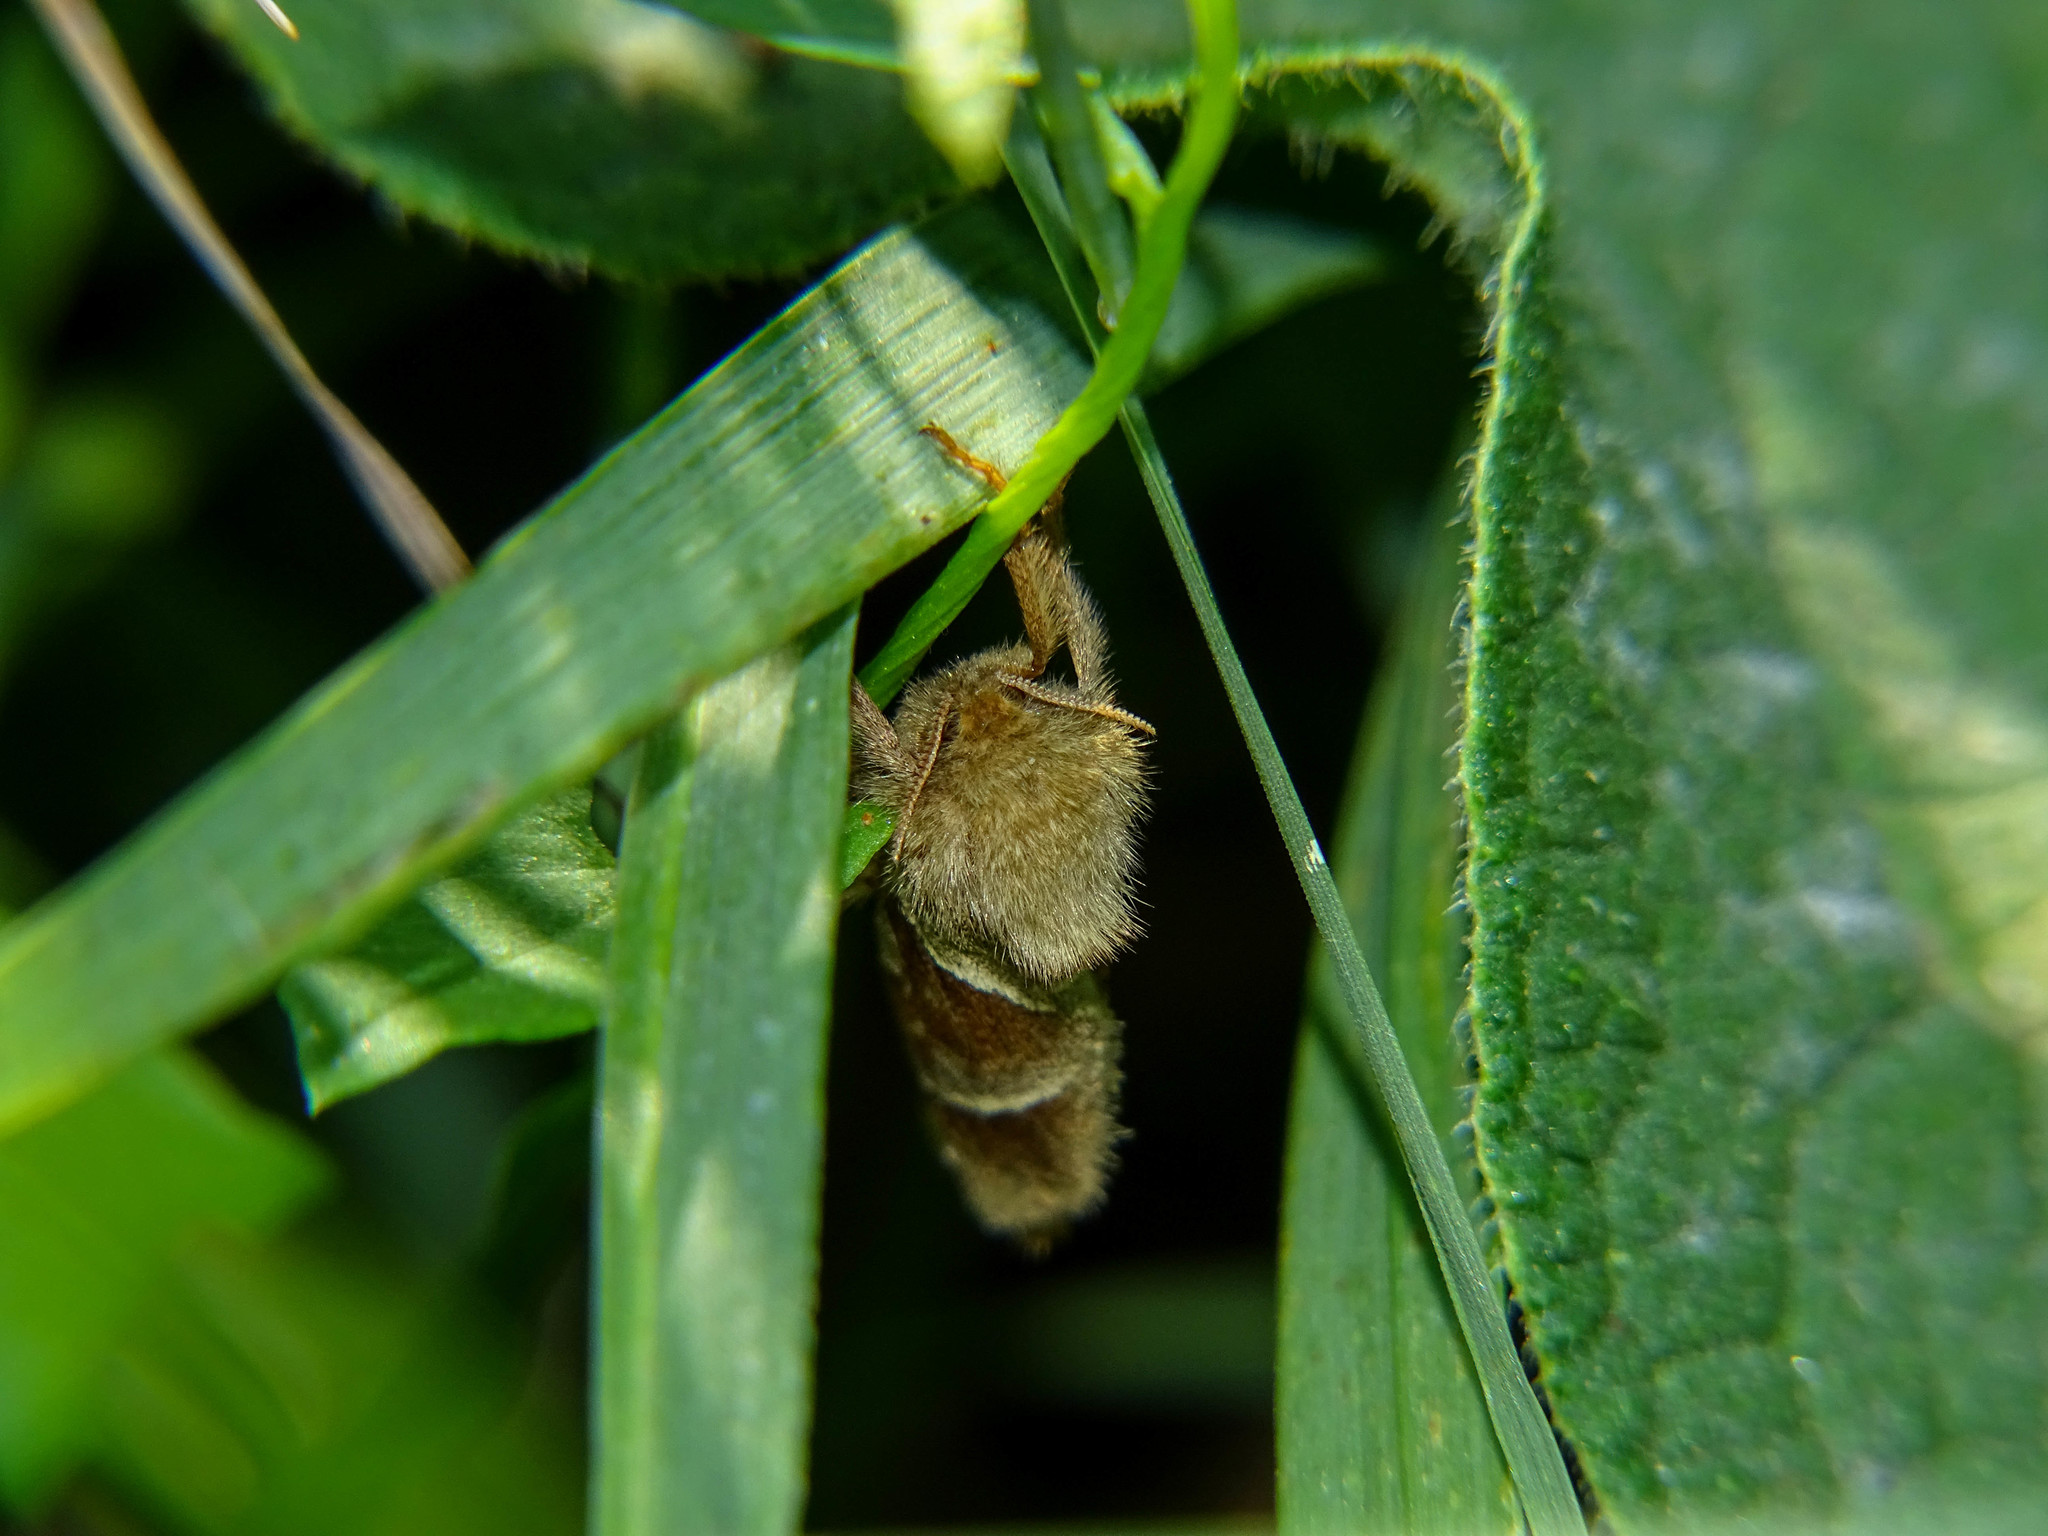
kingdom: Animalia
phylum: Arthropoda
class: Insecta
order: Lepidoptera
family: Hepialidae
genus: Triodia
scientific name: Triodia sylvina
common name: Orange swift
